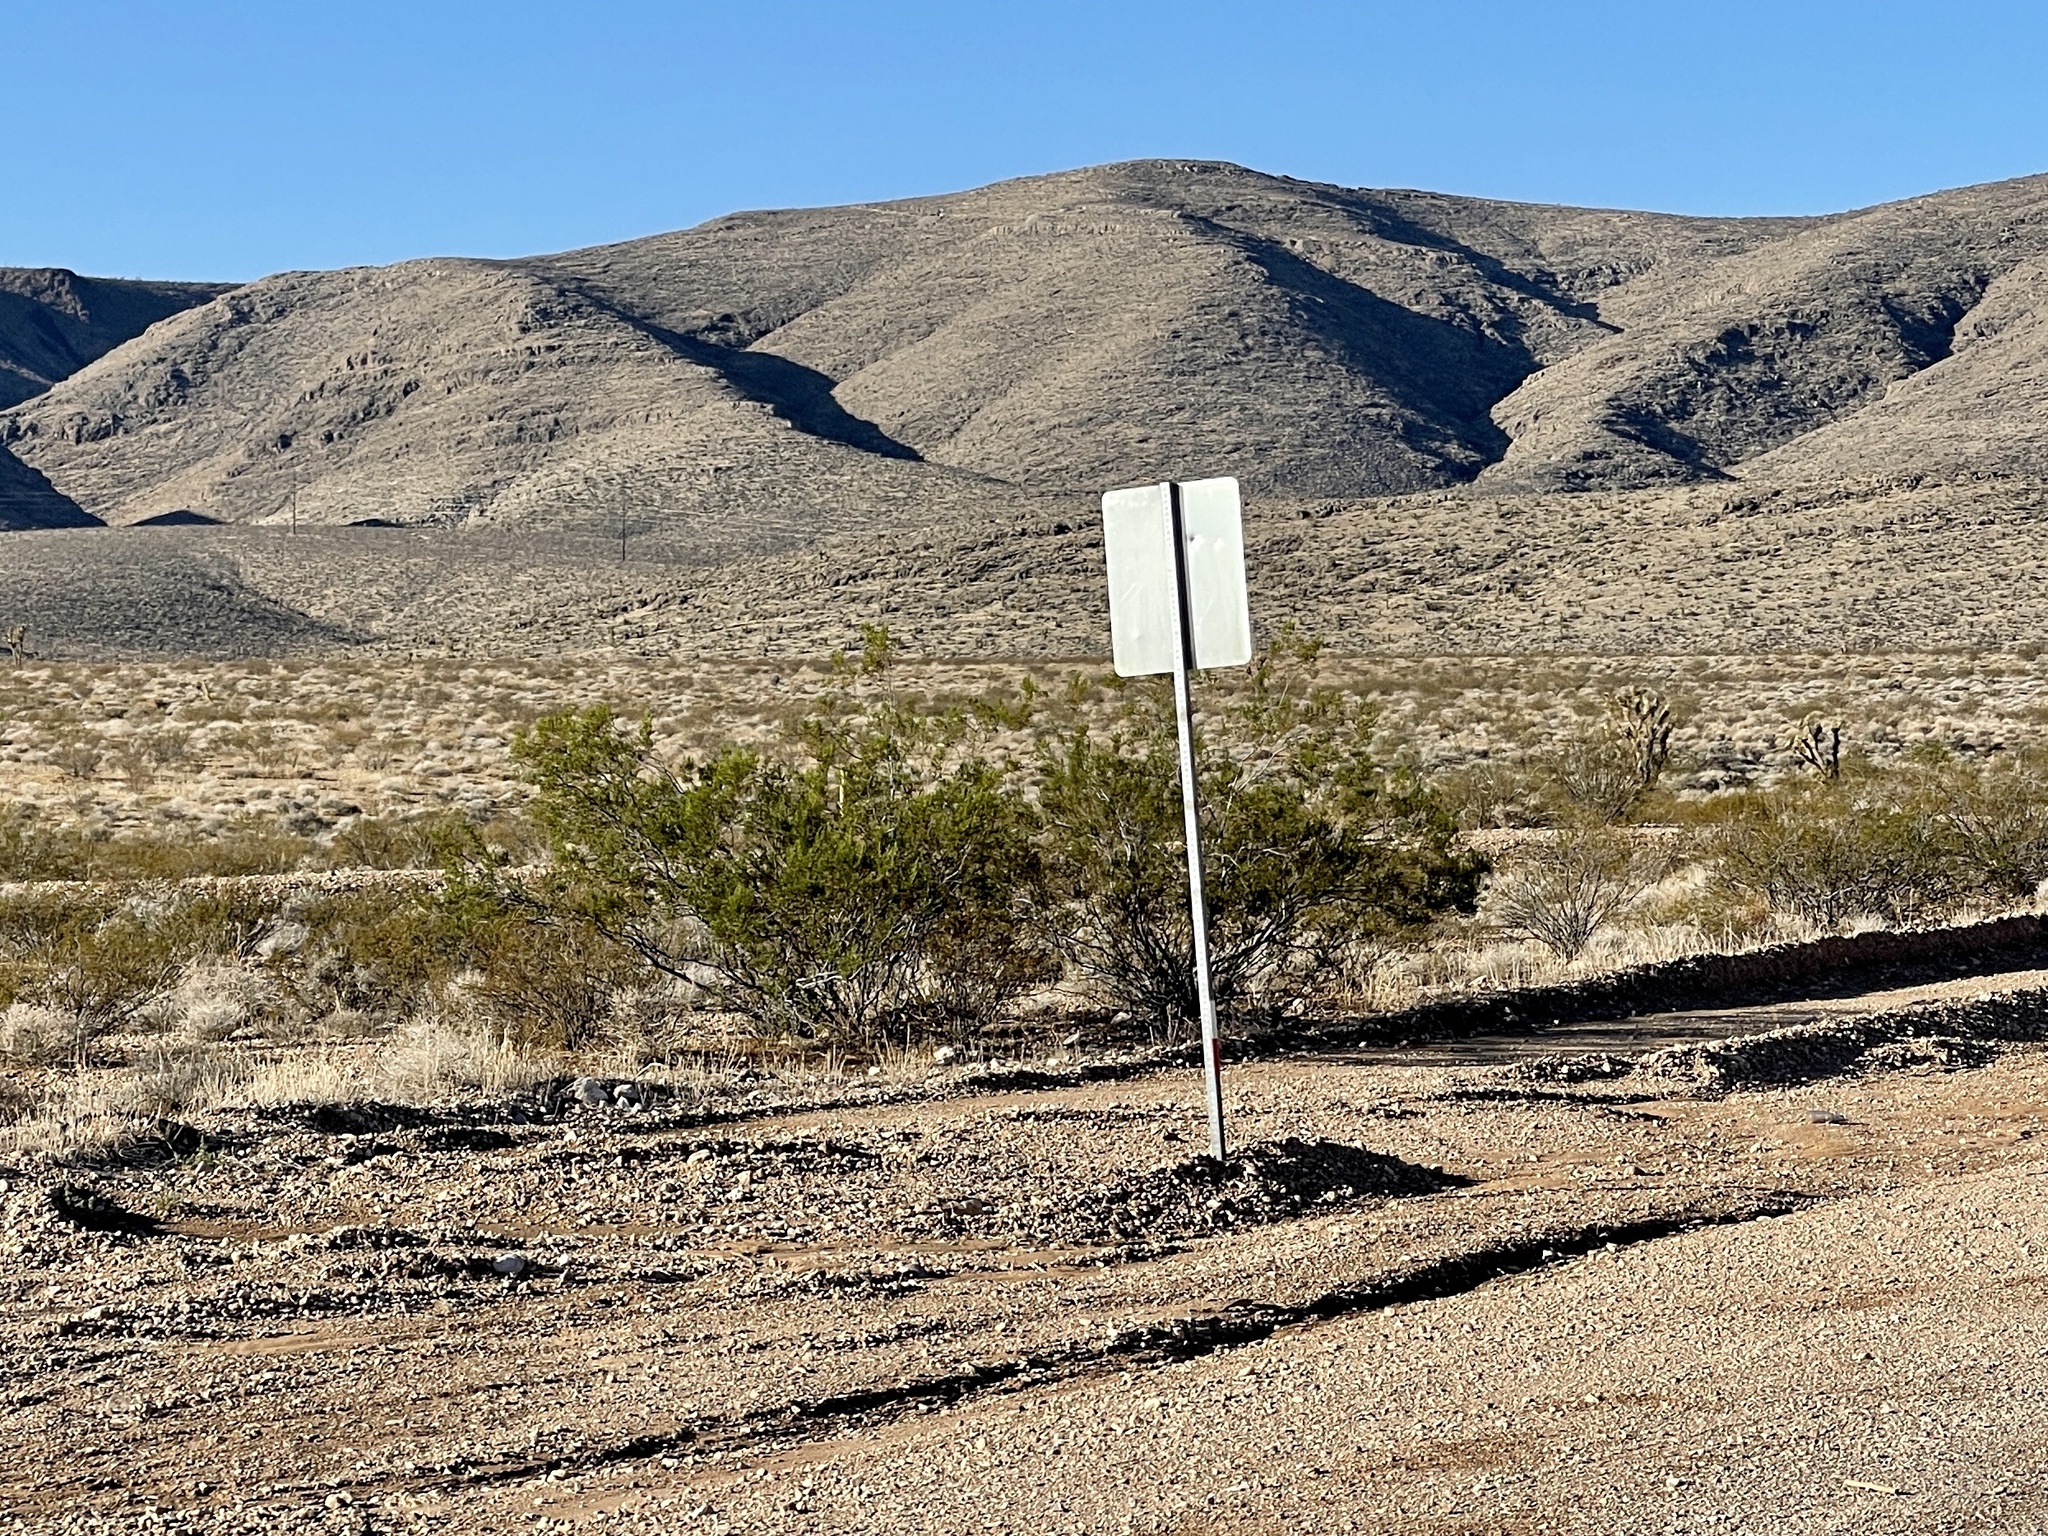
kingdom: Plantae
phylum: Tracheophyta
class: Magnoliopsida
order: Zygophyllales
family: Zygophyllaceae
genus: Larrea
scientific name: Larrea tridentata
